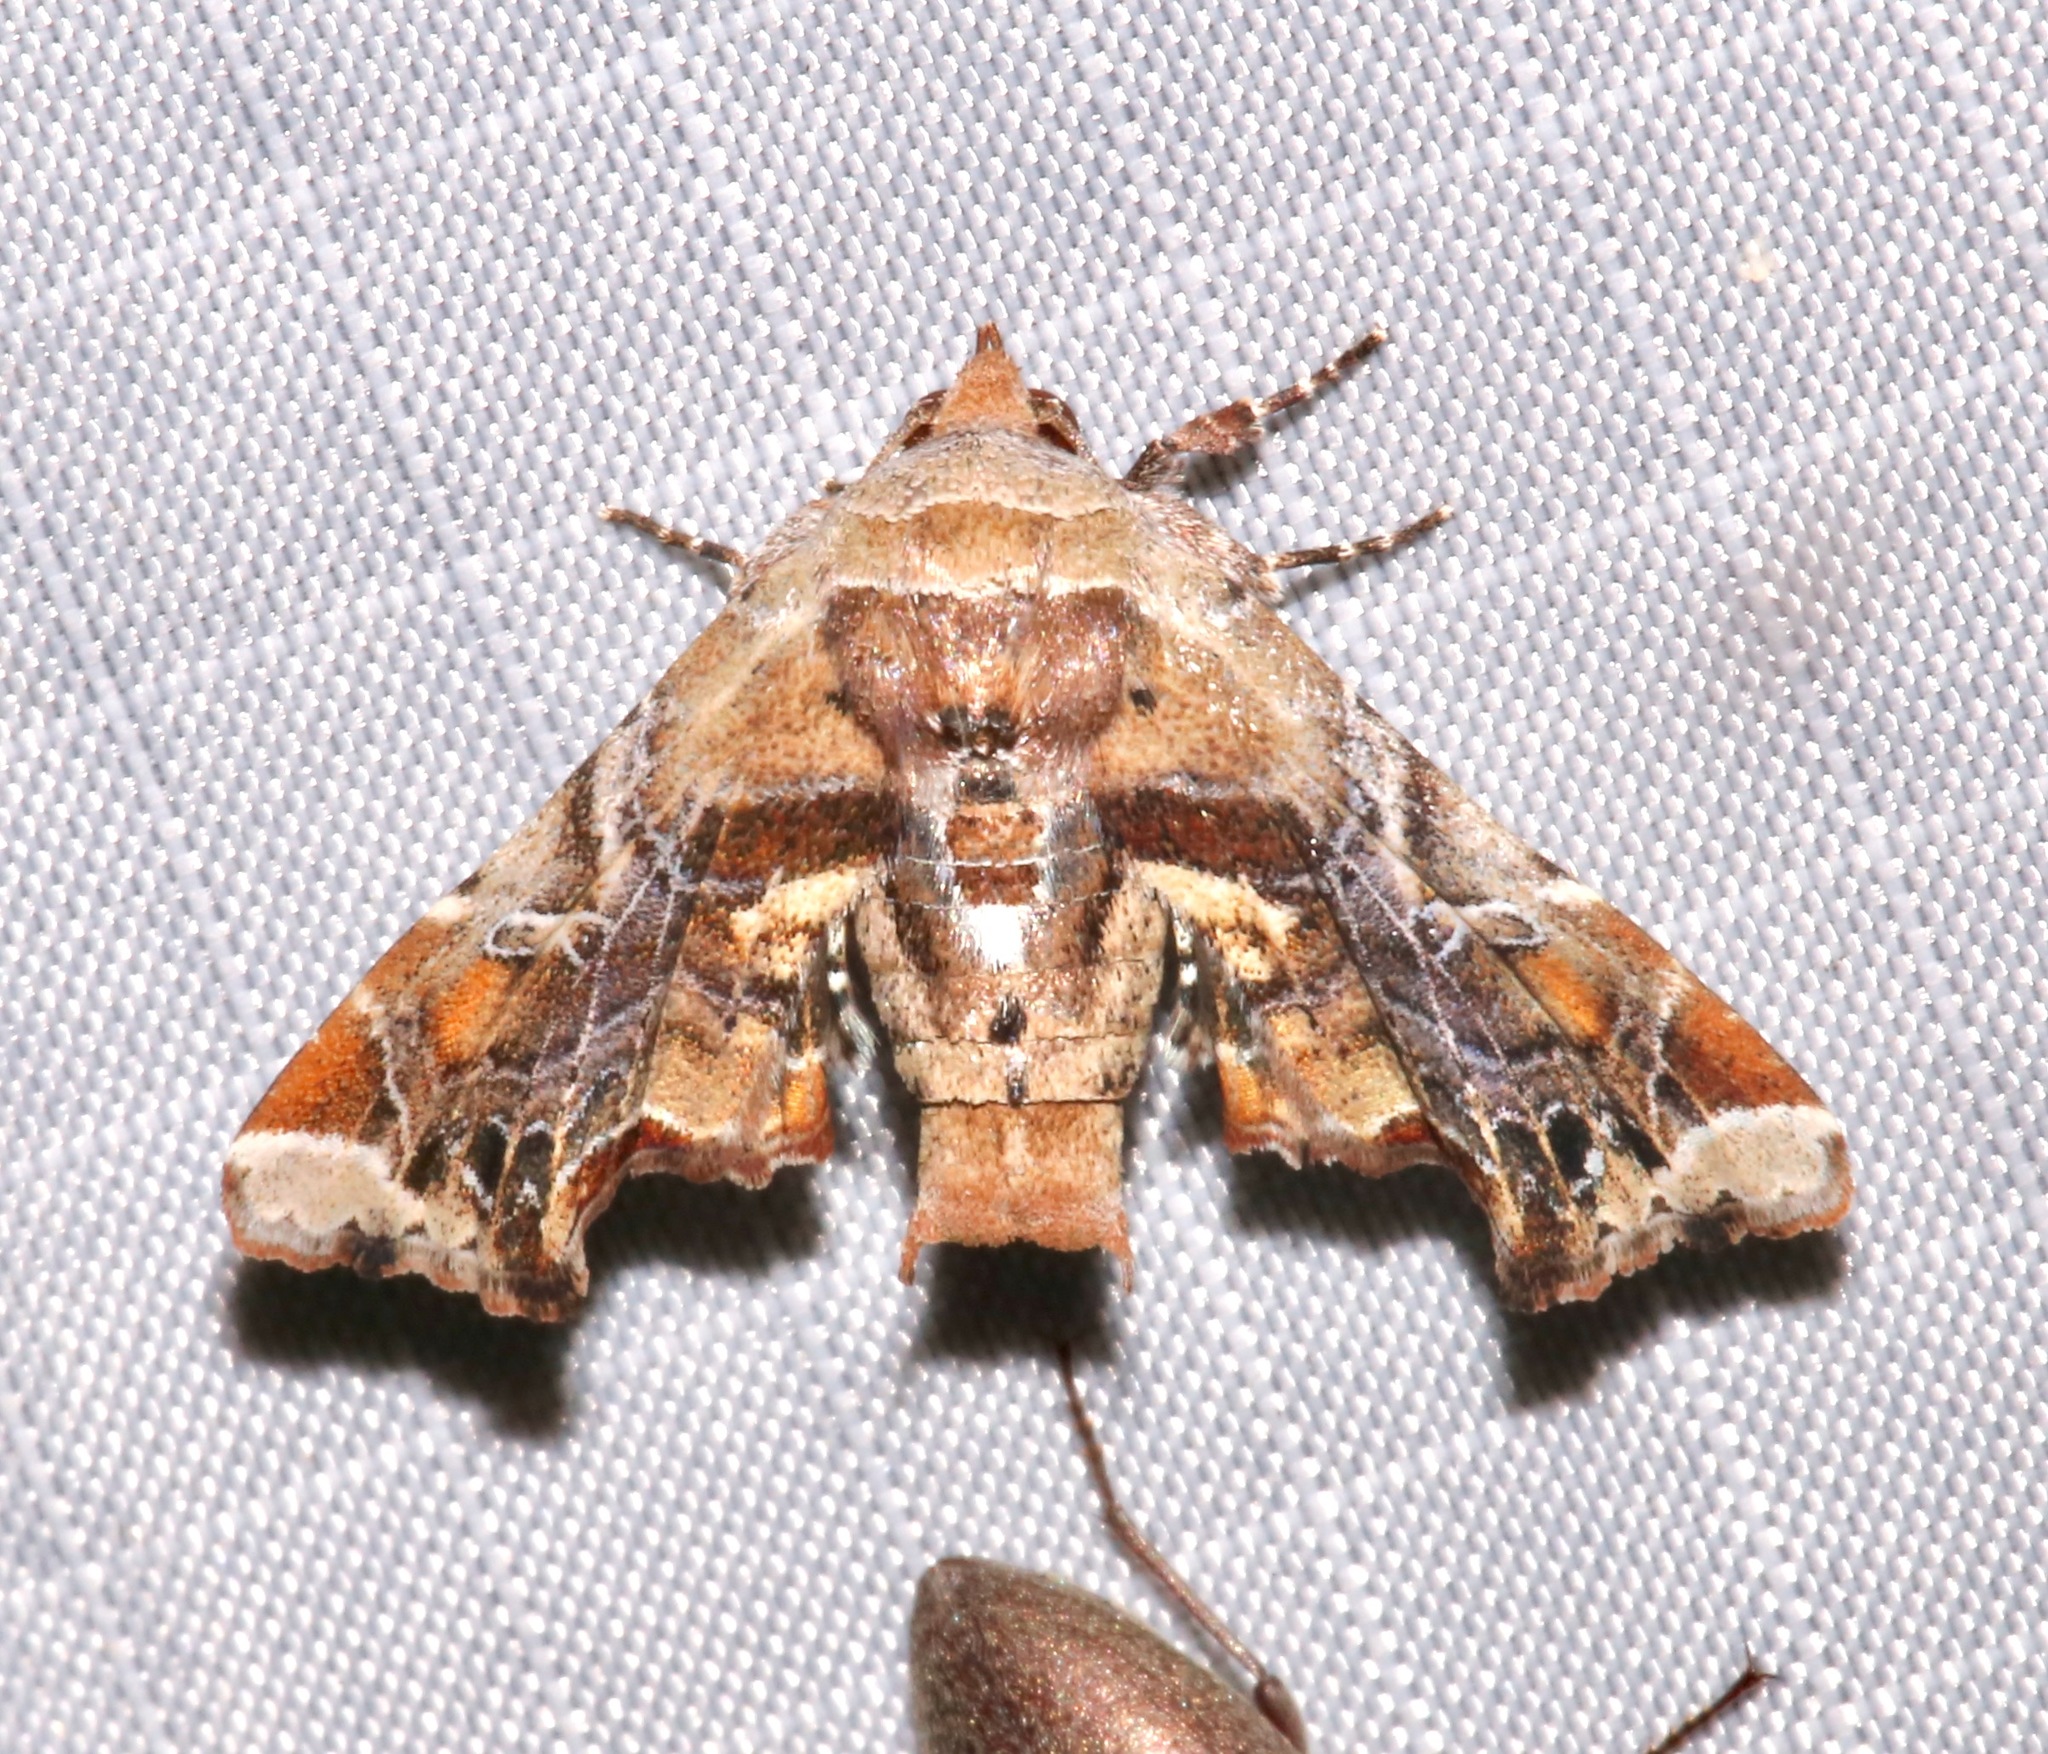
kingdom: Animalia
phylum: Arthropoda
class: Insecta
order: Lepidoptera
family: Euteliidae
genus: Eutelia
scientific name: Eutelia furcata
